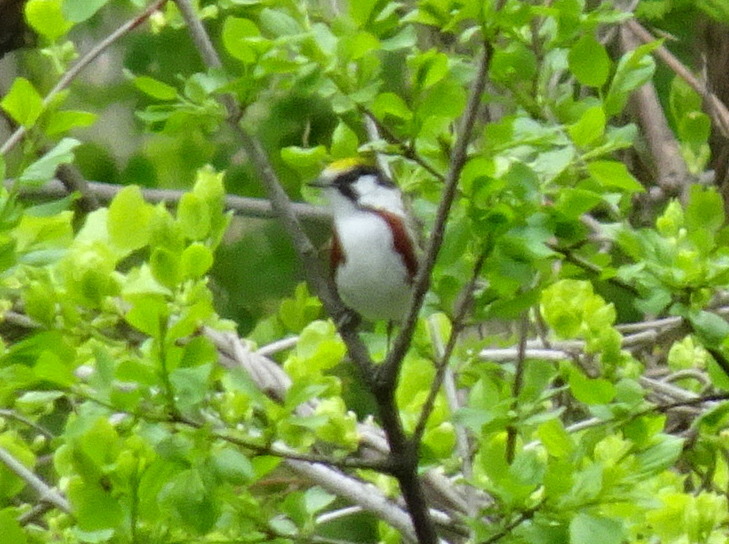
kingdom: Animalia
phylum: Chordata
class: Aves
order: Passeriformes
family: Parulidae
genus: Setophaga
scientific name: Setophaga pensylvanica
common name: Chestnut-sided warbler
